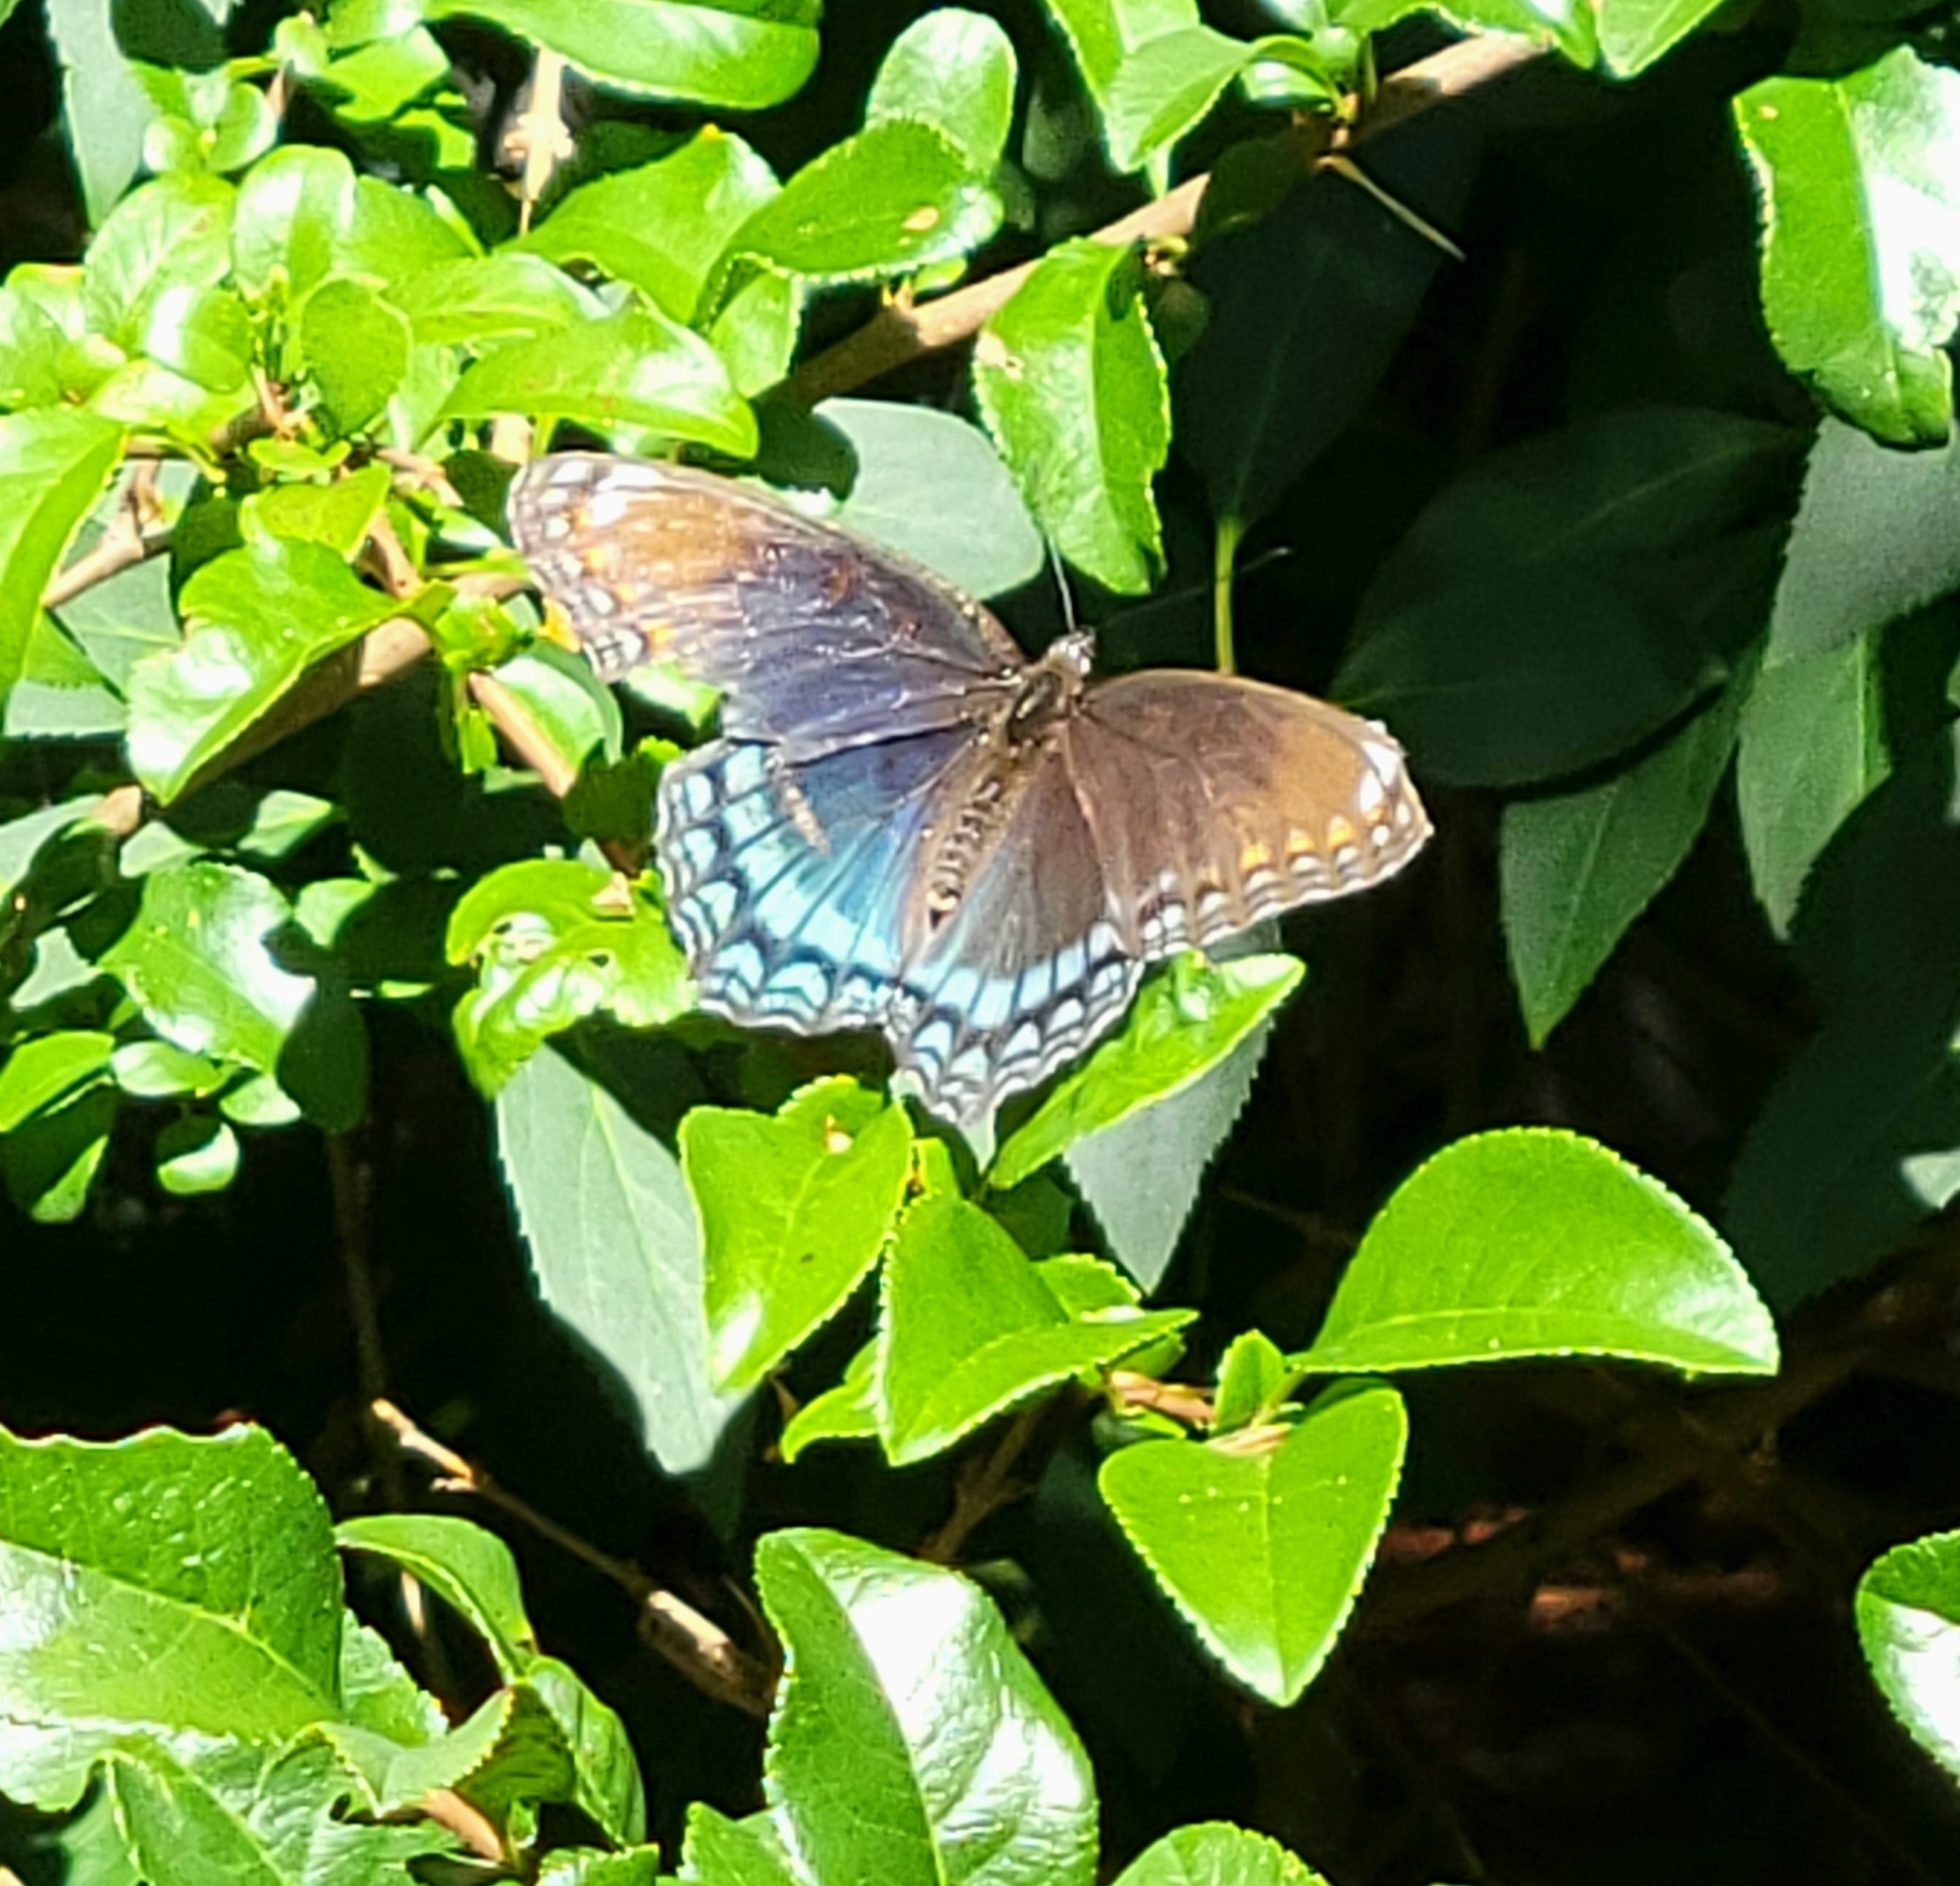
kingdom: Animalia
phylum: Arthropoda
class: Insecta
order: Lepidoptera
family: Nymphalidae
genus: Limenitis
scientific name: Limenitis astyanax
